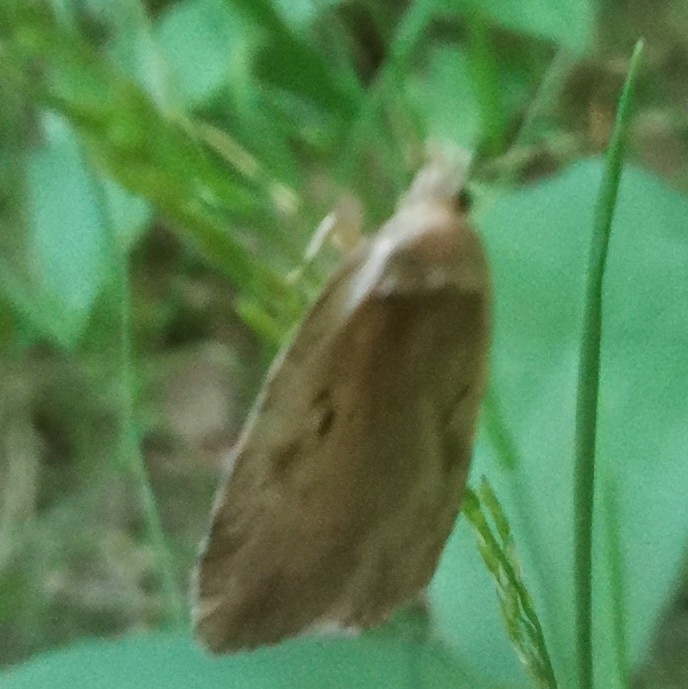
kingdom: Animalia
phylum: Arthropoda
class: Insecta
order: Lepidoptera
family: Depressariidae
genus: Agonopterix
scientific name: Agonopterix ocellana
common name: Red-letter flat-body
